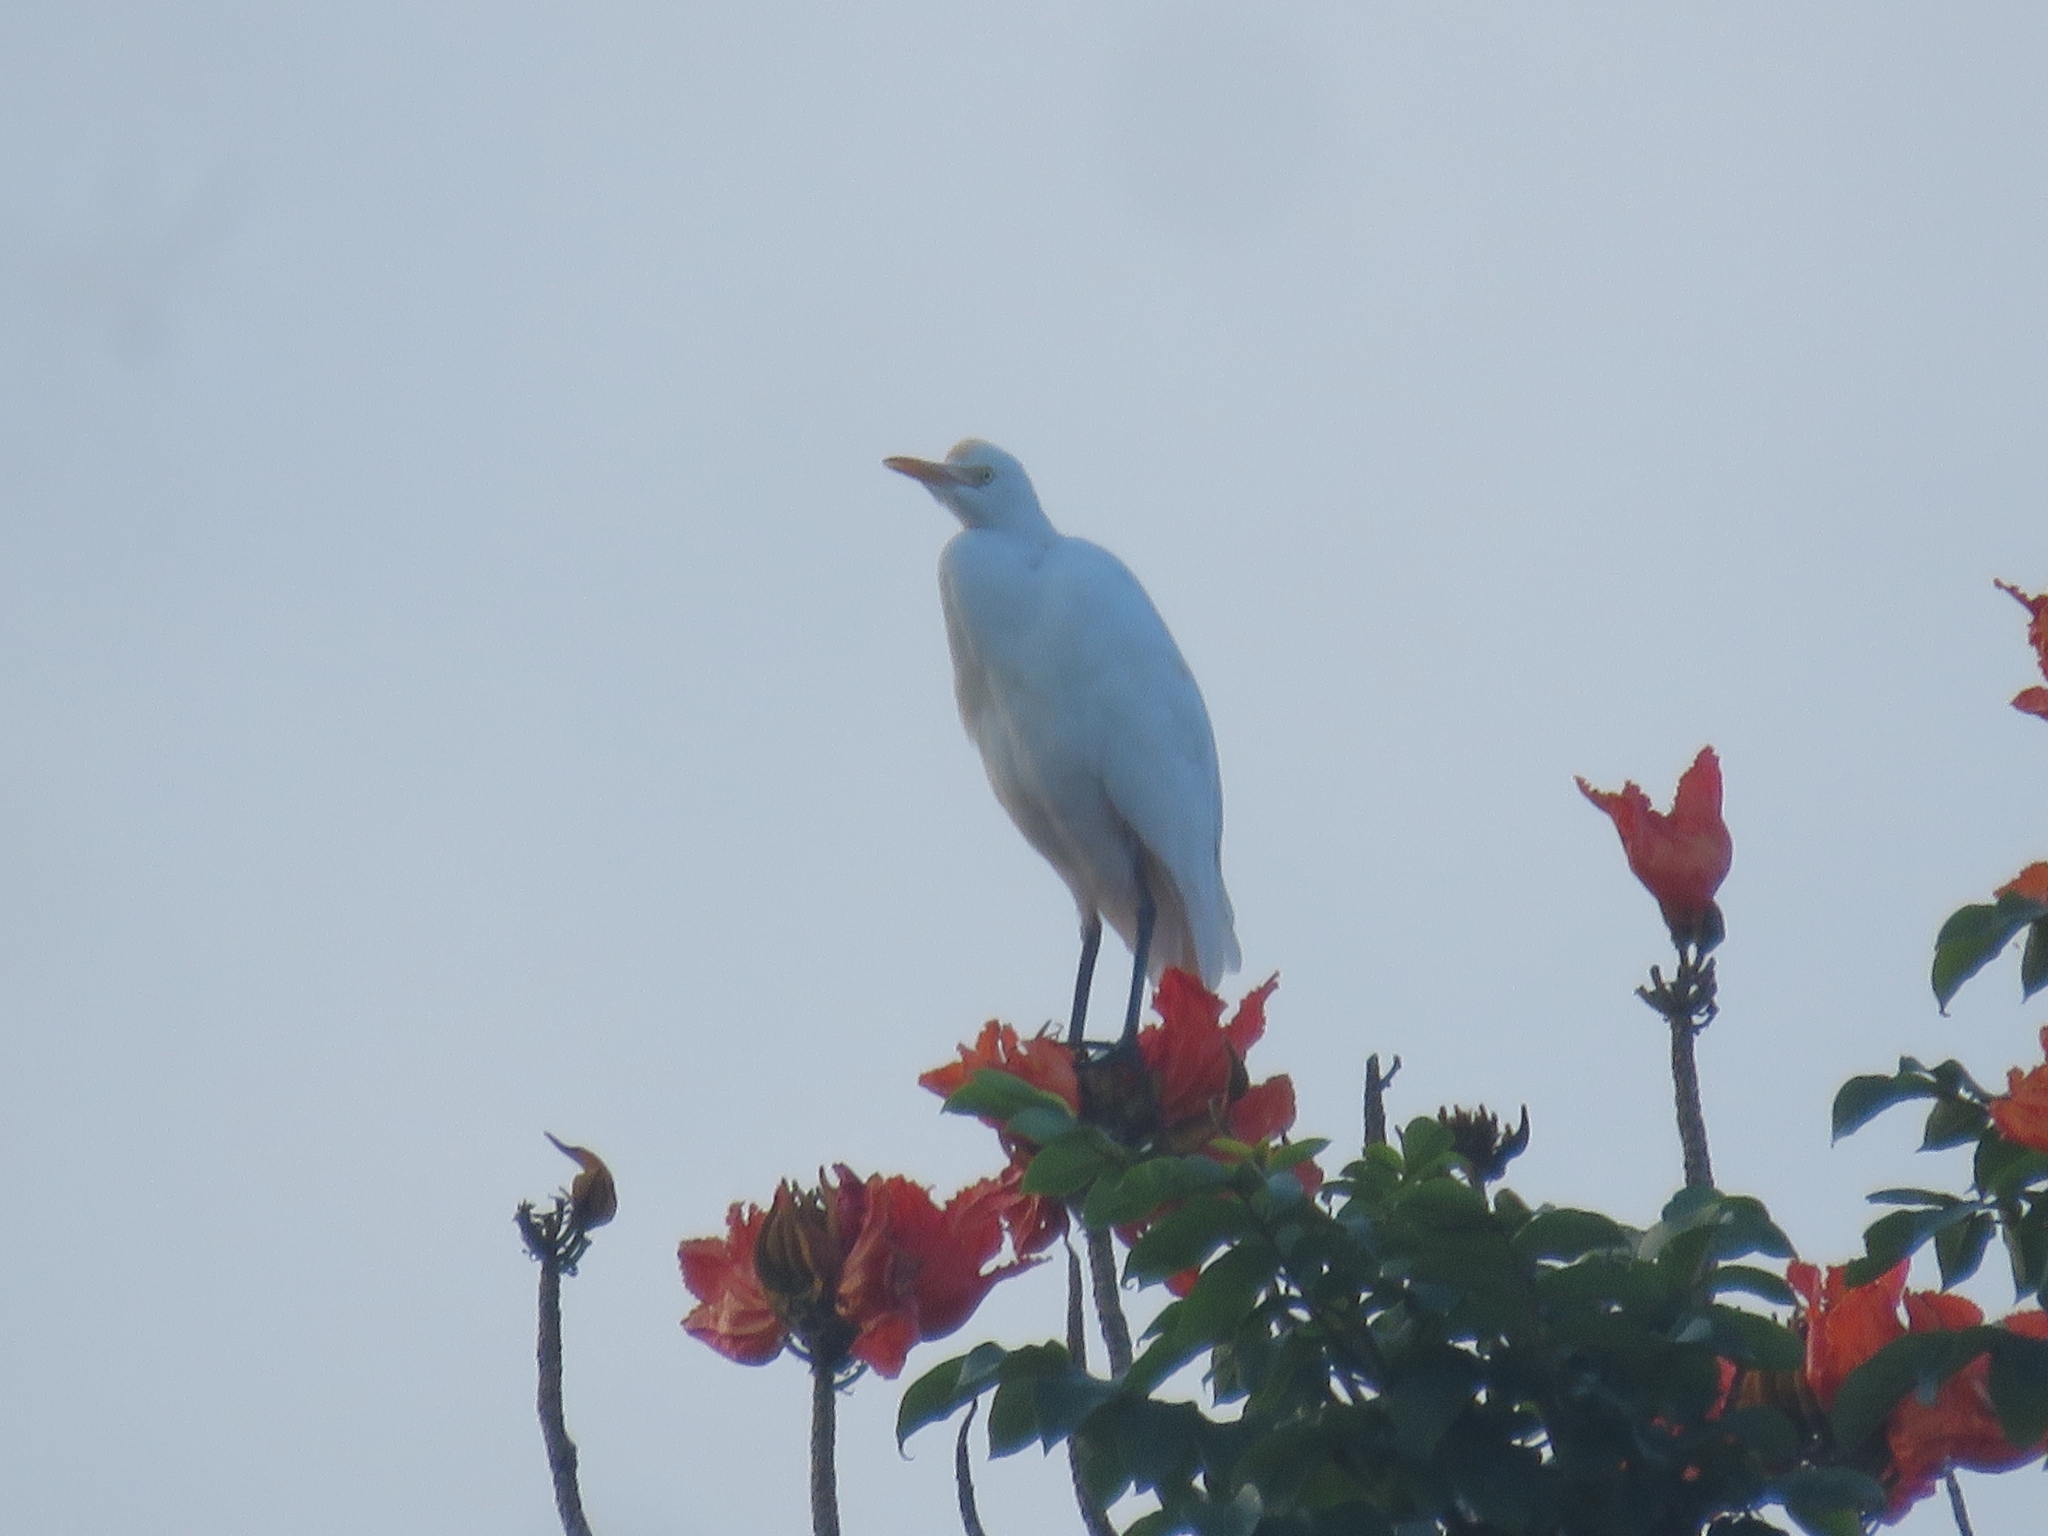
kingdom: Animalia
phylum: Chordata
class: Aves
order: Pelecaniformes
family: Ardeidae
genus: Bubulcus
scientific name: Bubulcus coromandus
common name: Eastern cattle egret
